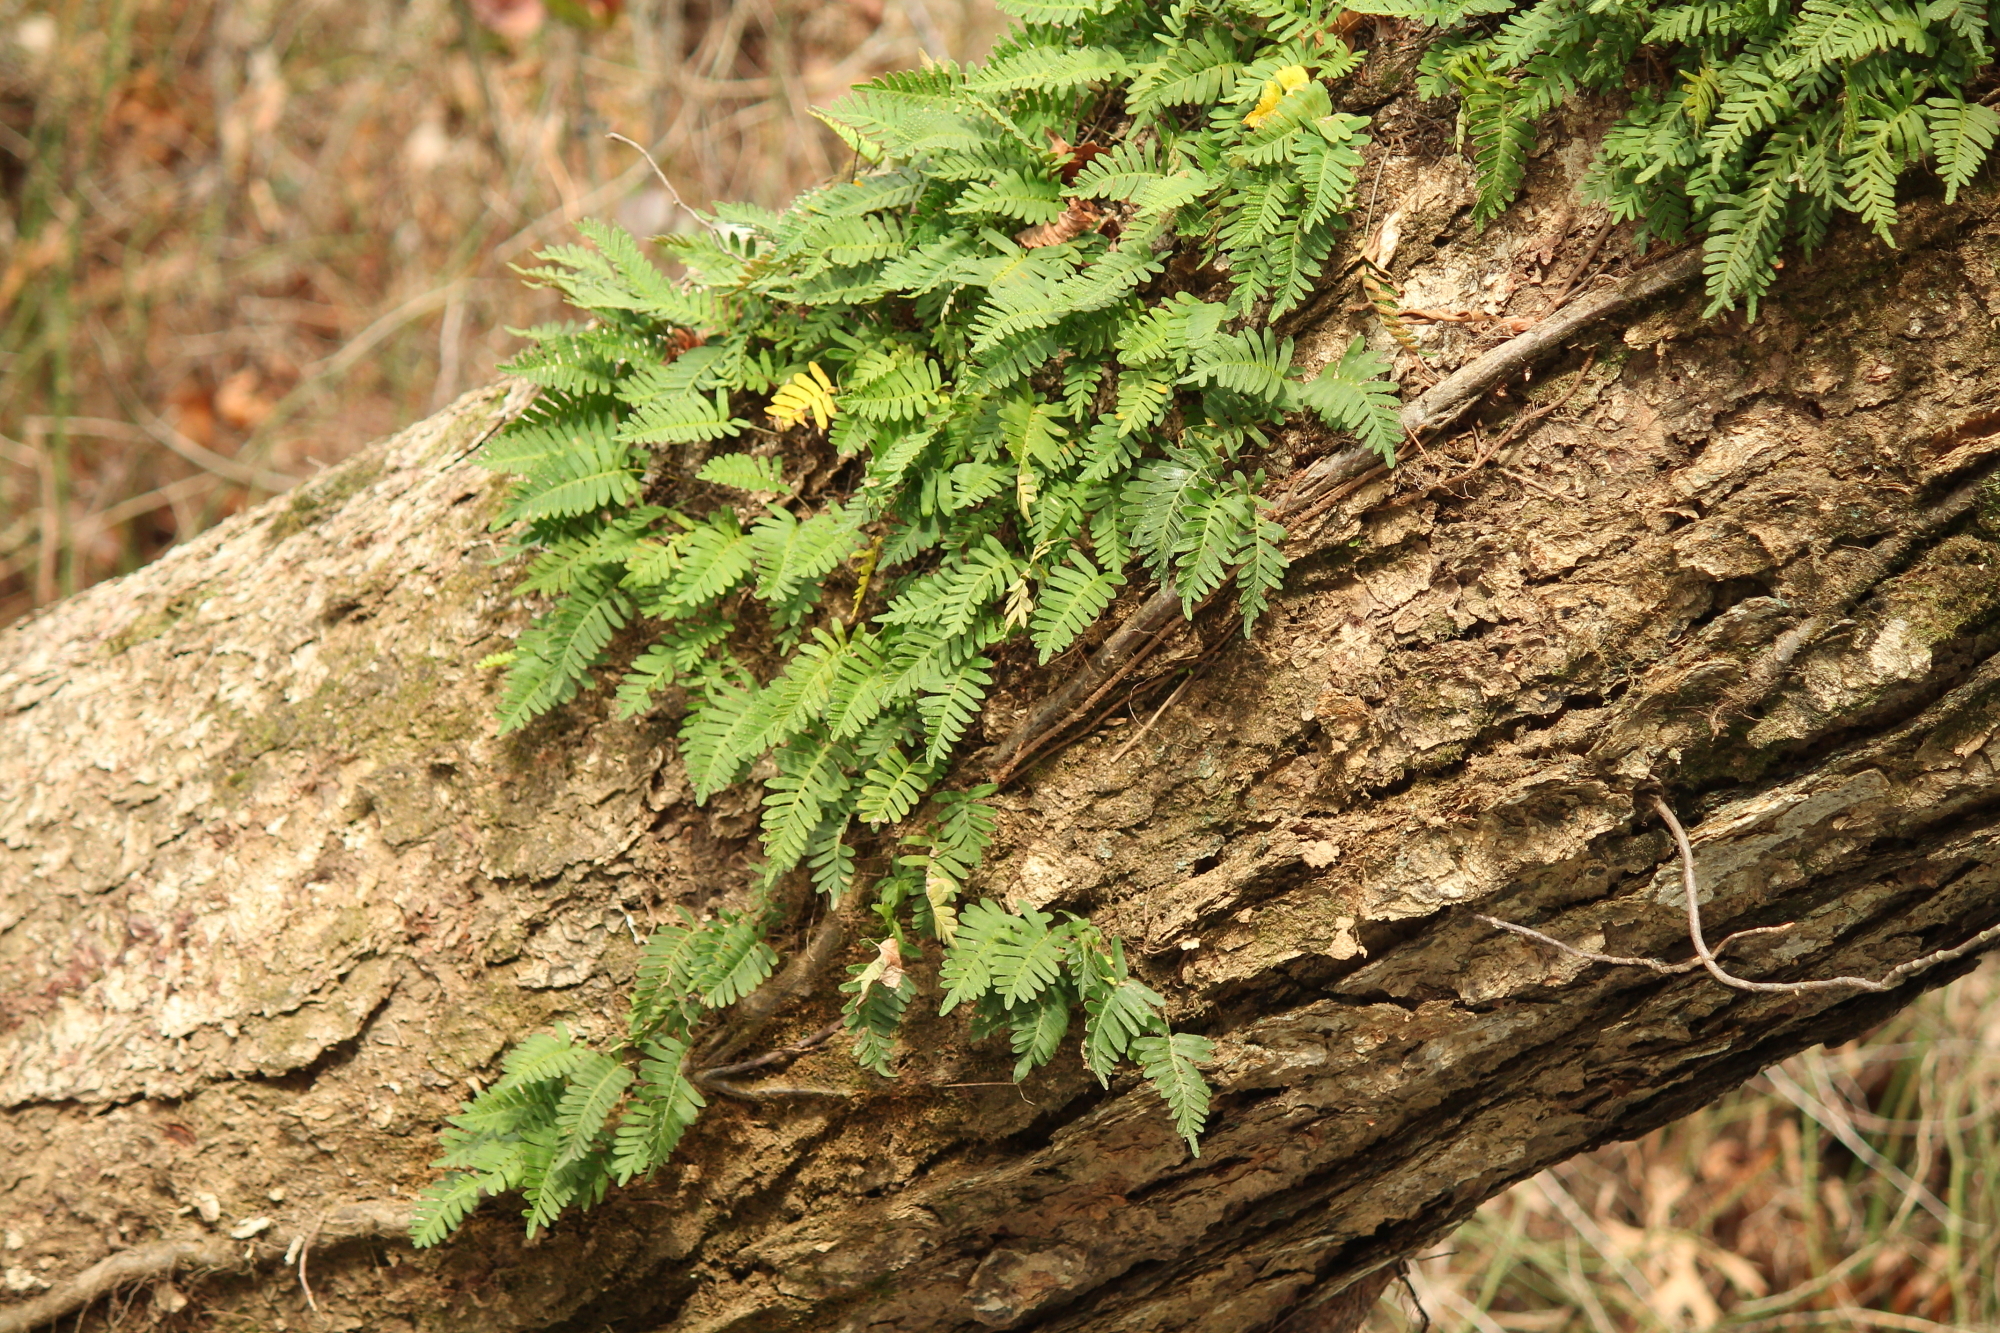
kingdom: Plantae
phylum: Tracheophyta
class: Polypodiopsida
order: Polypodiales
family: Polypodiaceae
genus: Pleopeltis
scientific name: Pleopeltis michauxiana
